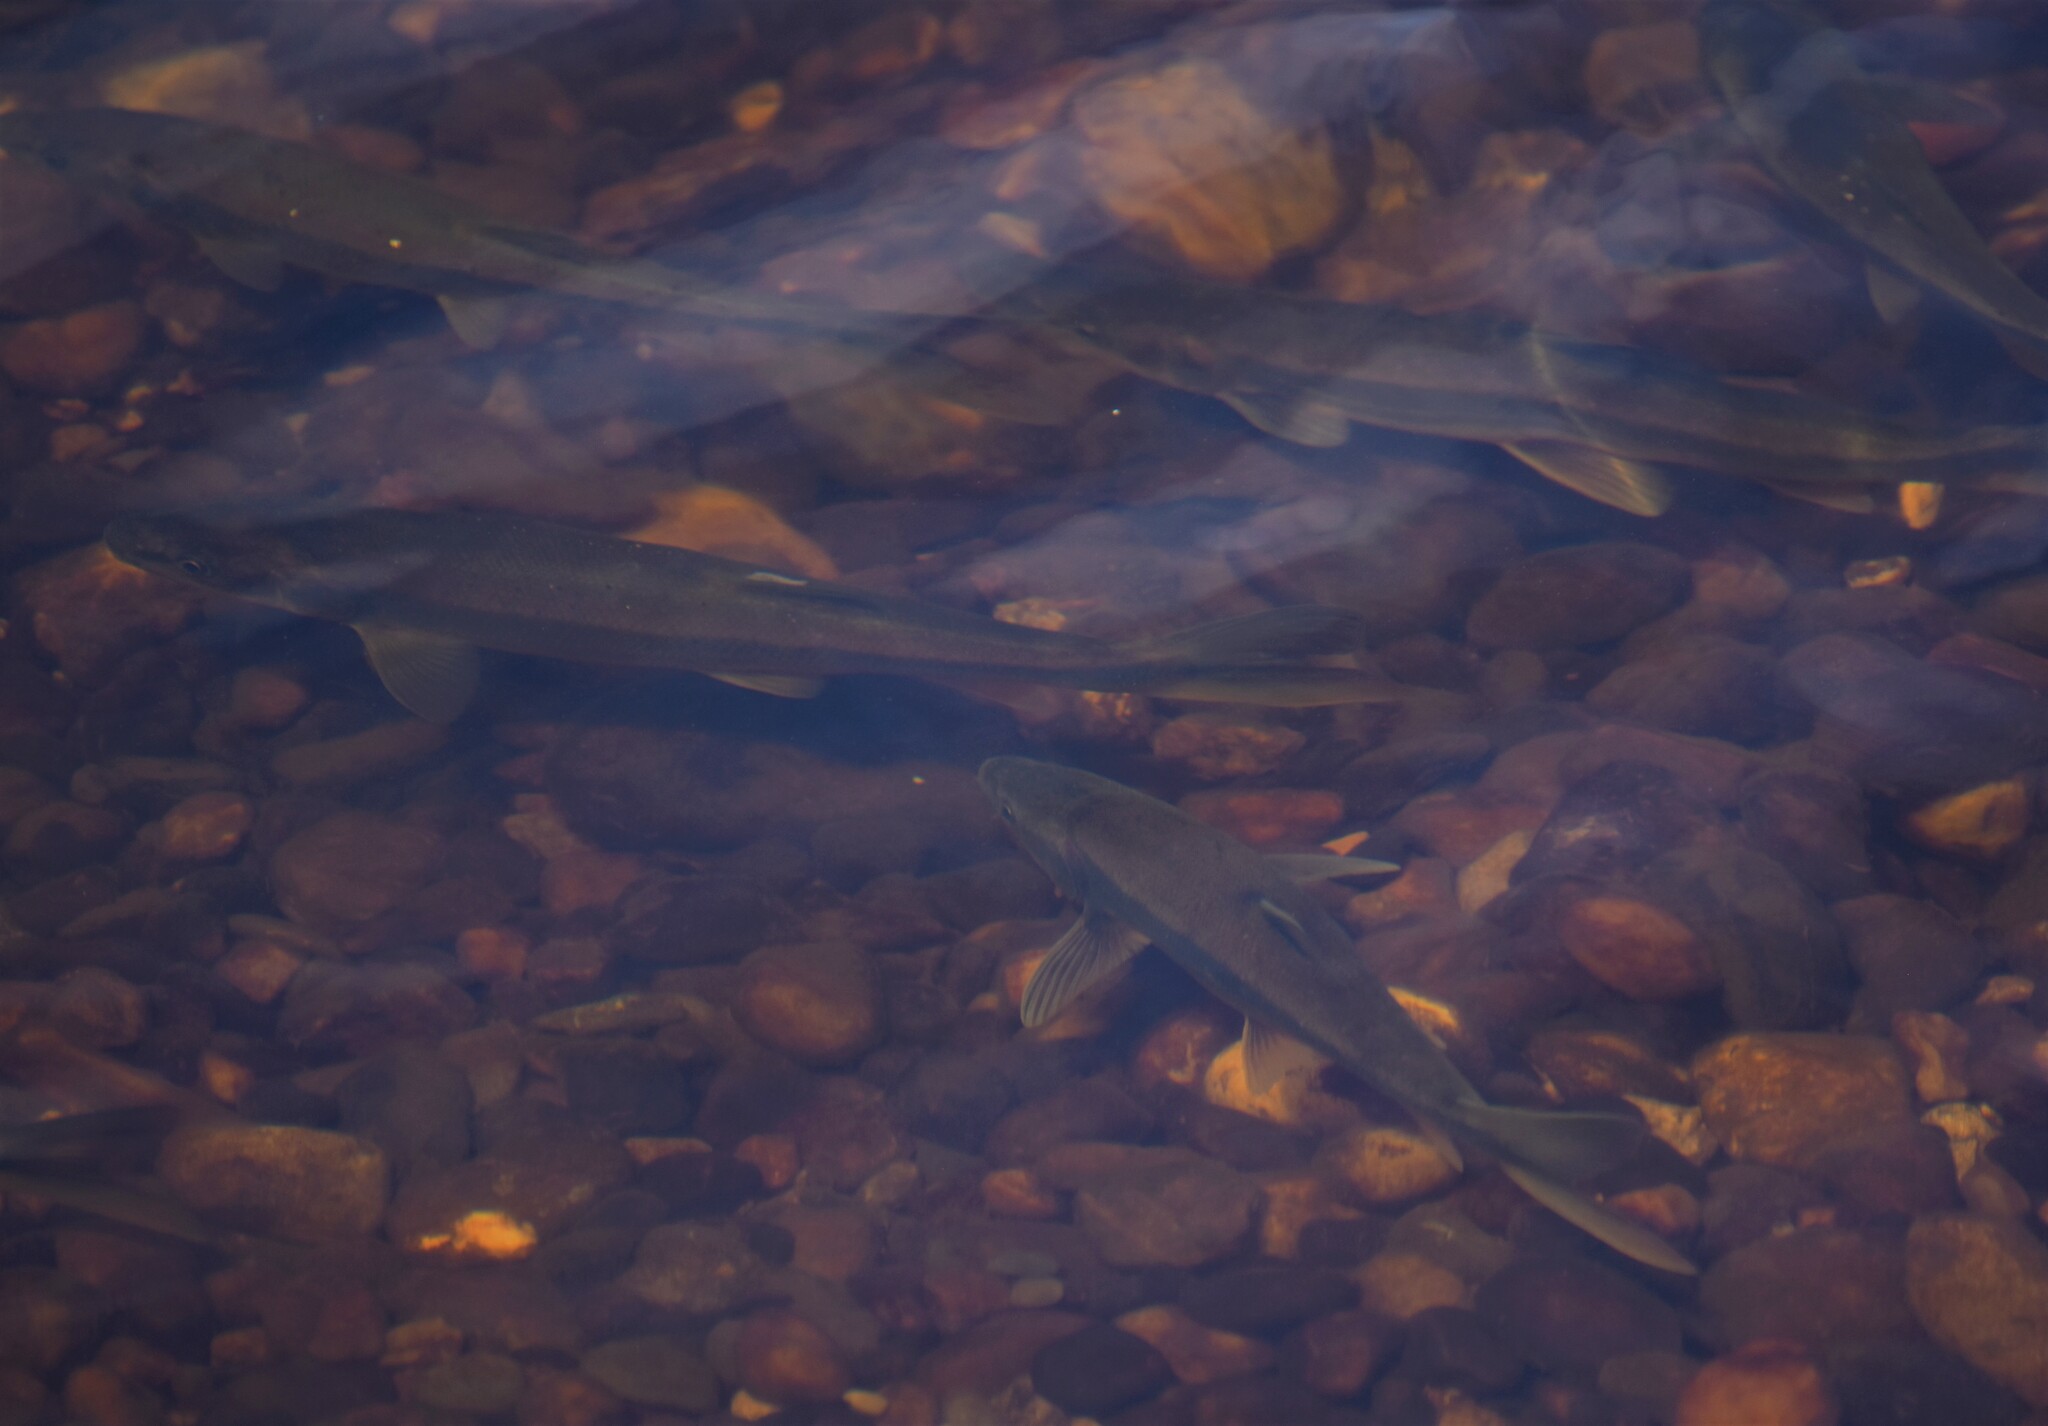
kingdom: Animalia
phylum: Chordata
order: Cypriniformes
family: Cyprinidae
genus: Ptychocheilus
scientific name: Ptychocheilus oregonensis
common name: Northern pikeminnow
